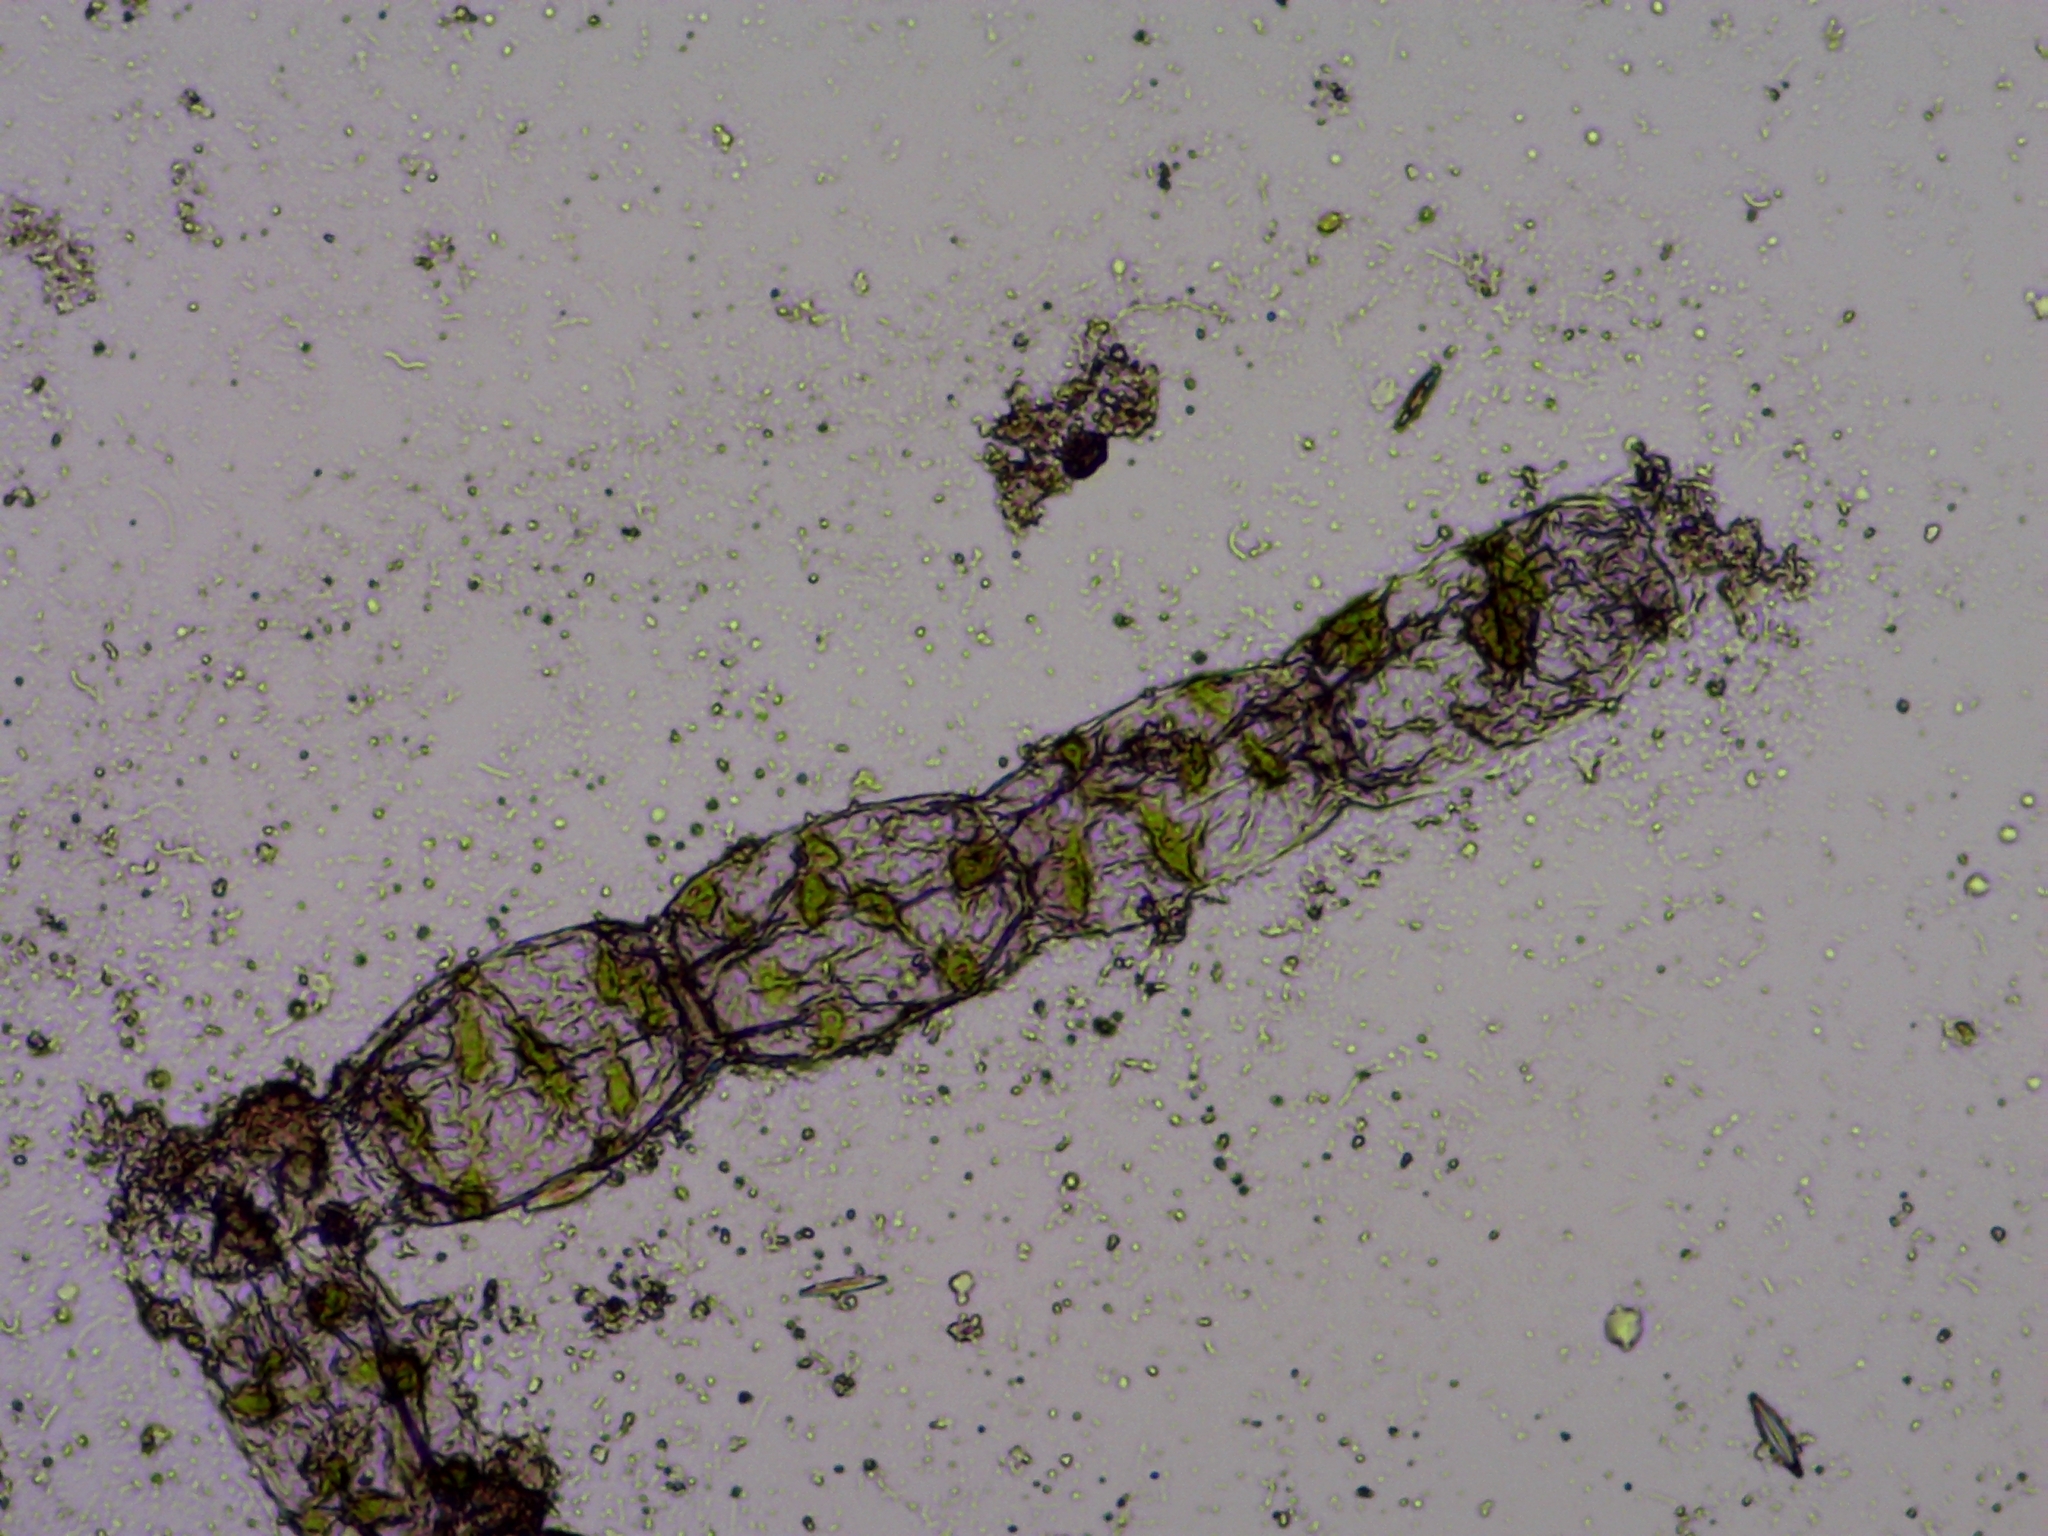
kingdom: Plantae
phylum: Charophyta
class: Zygnematophyceae
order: Zygnematales
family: Zygnemataceae
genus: Spirogyra
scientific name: Spirogyra
